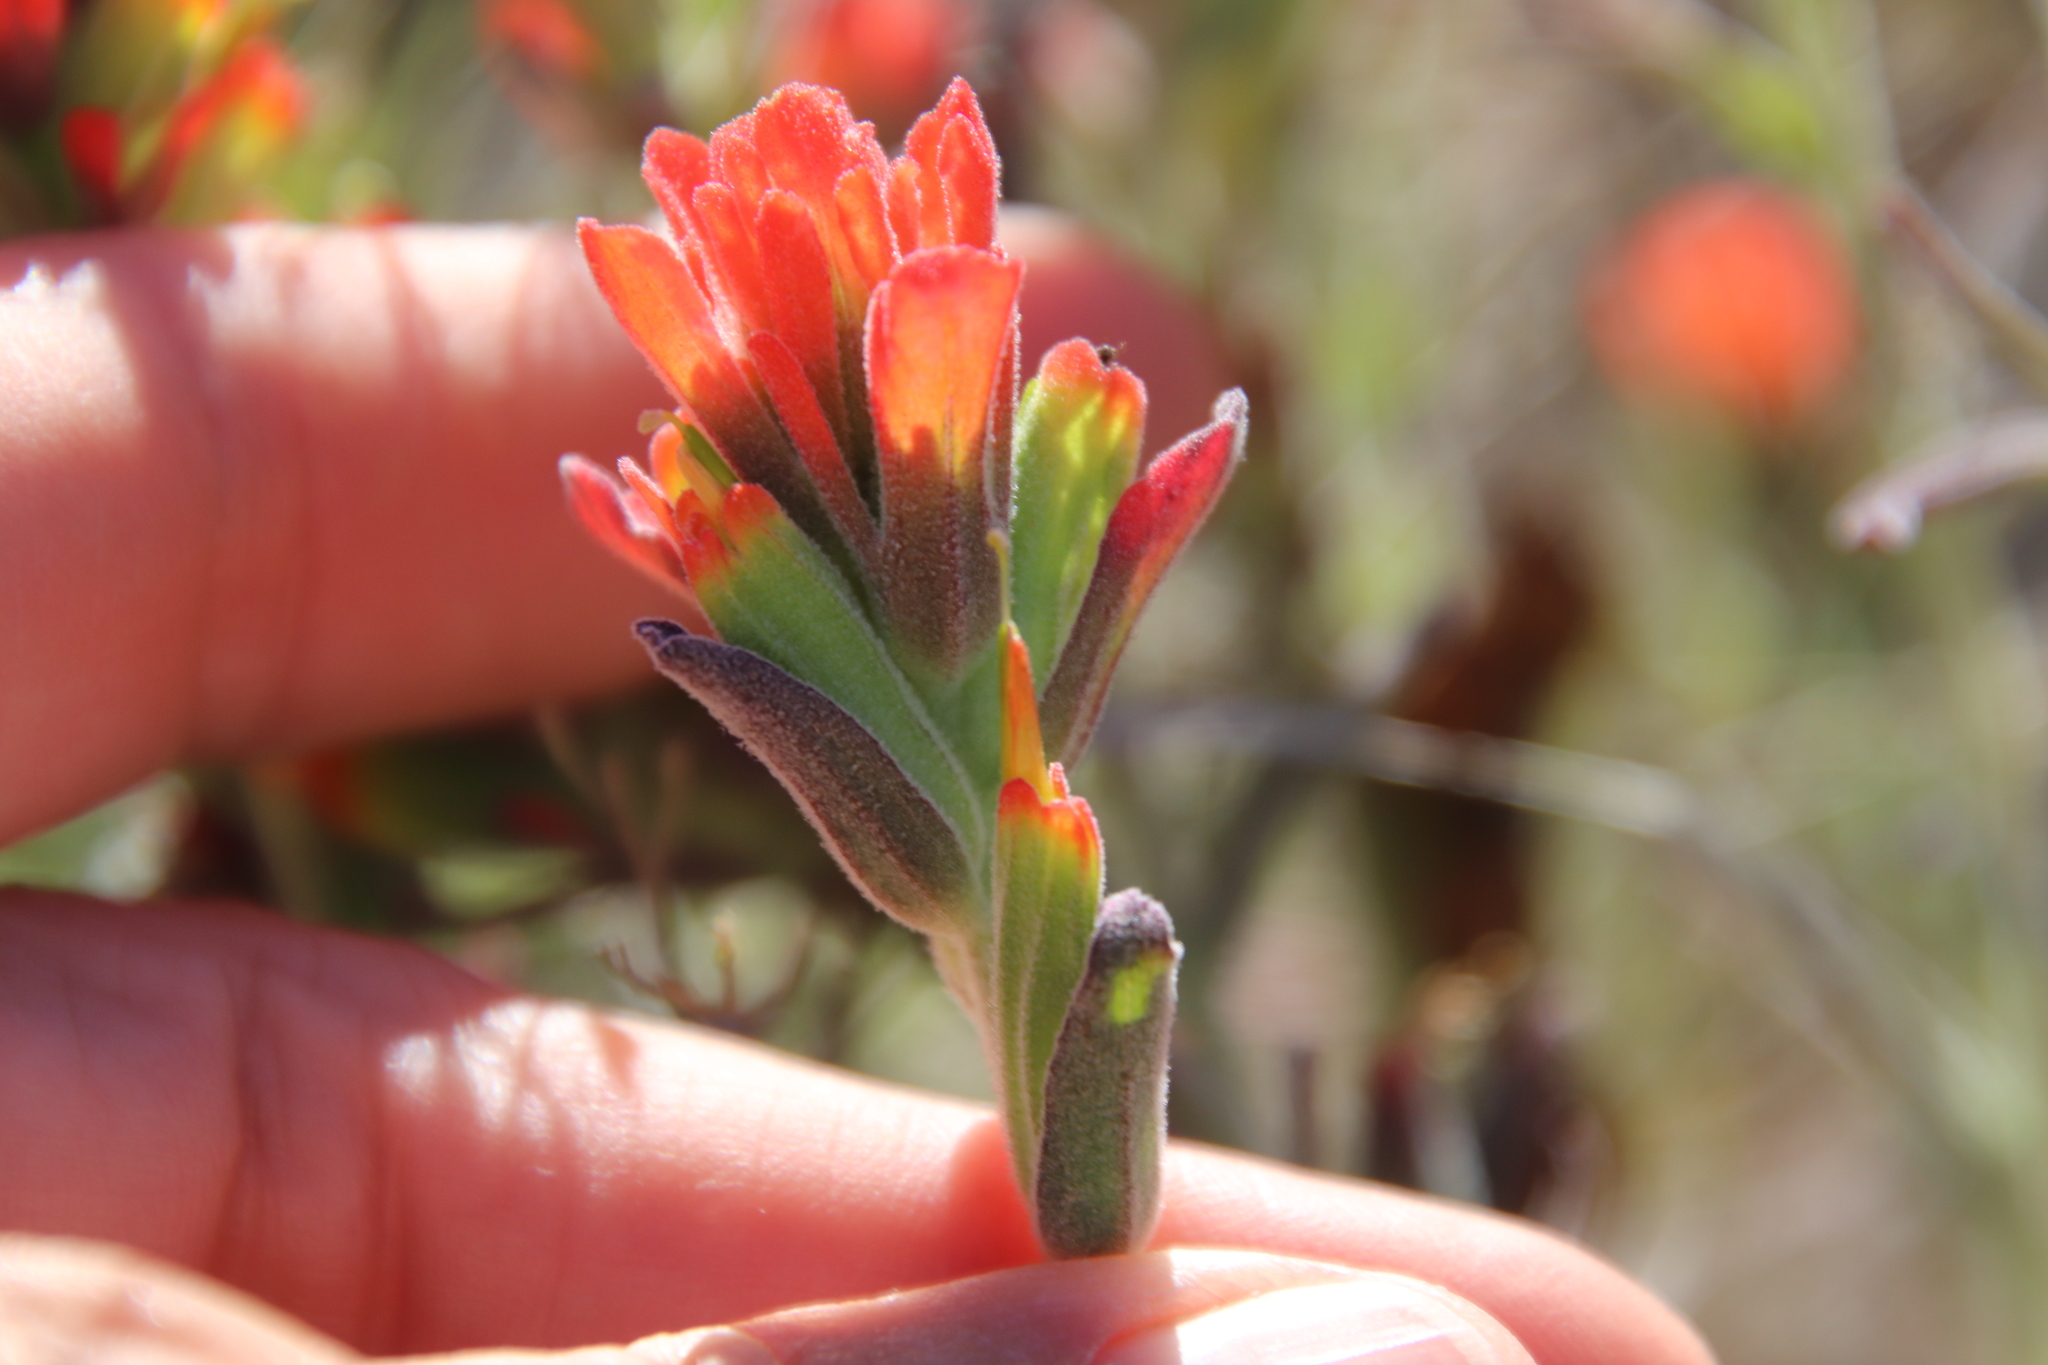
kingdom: Plantae
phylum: Tracheophyta
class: Magnoliopsida
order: Lamiales
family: Orobanchaceae
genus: Castilleja
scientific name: Castilleja foliolosa
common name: Woolly indian paintbrush
